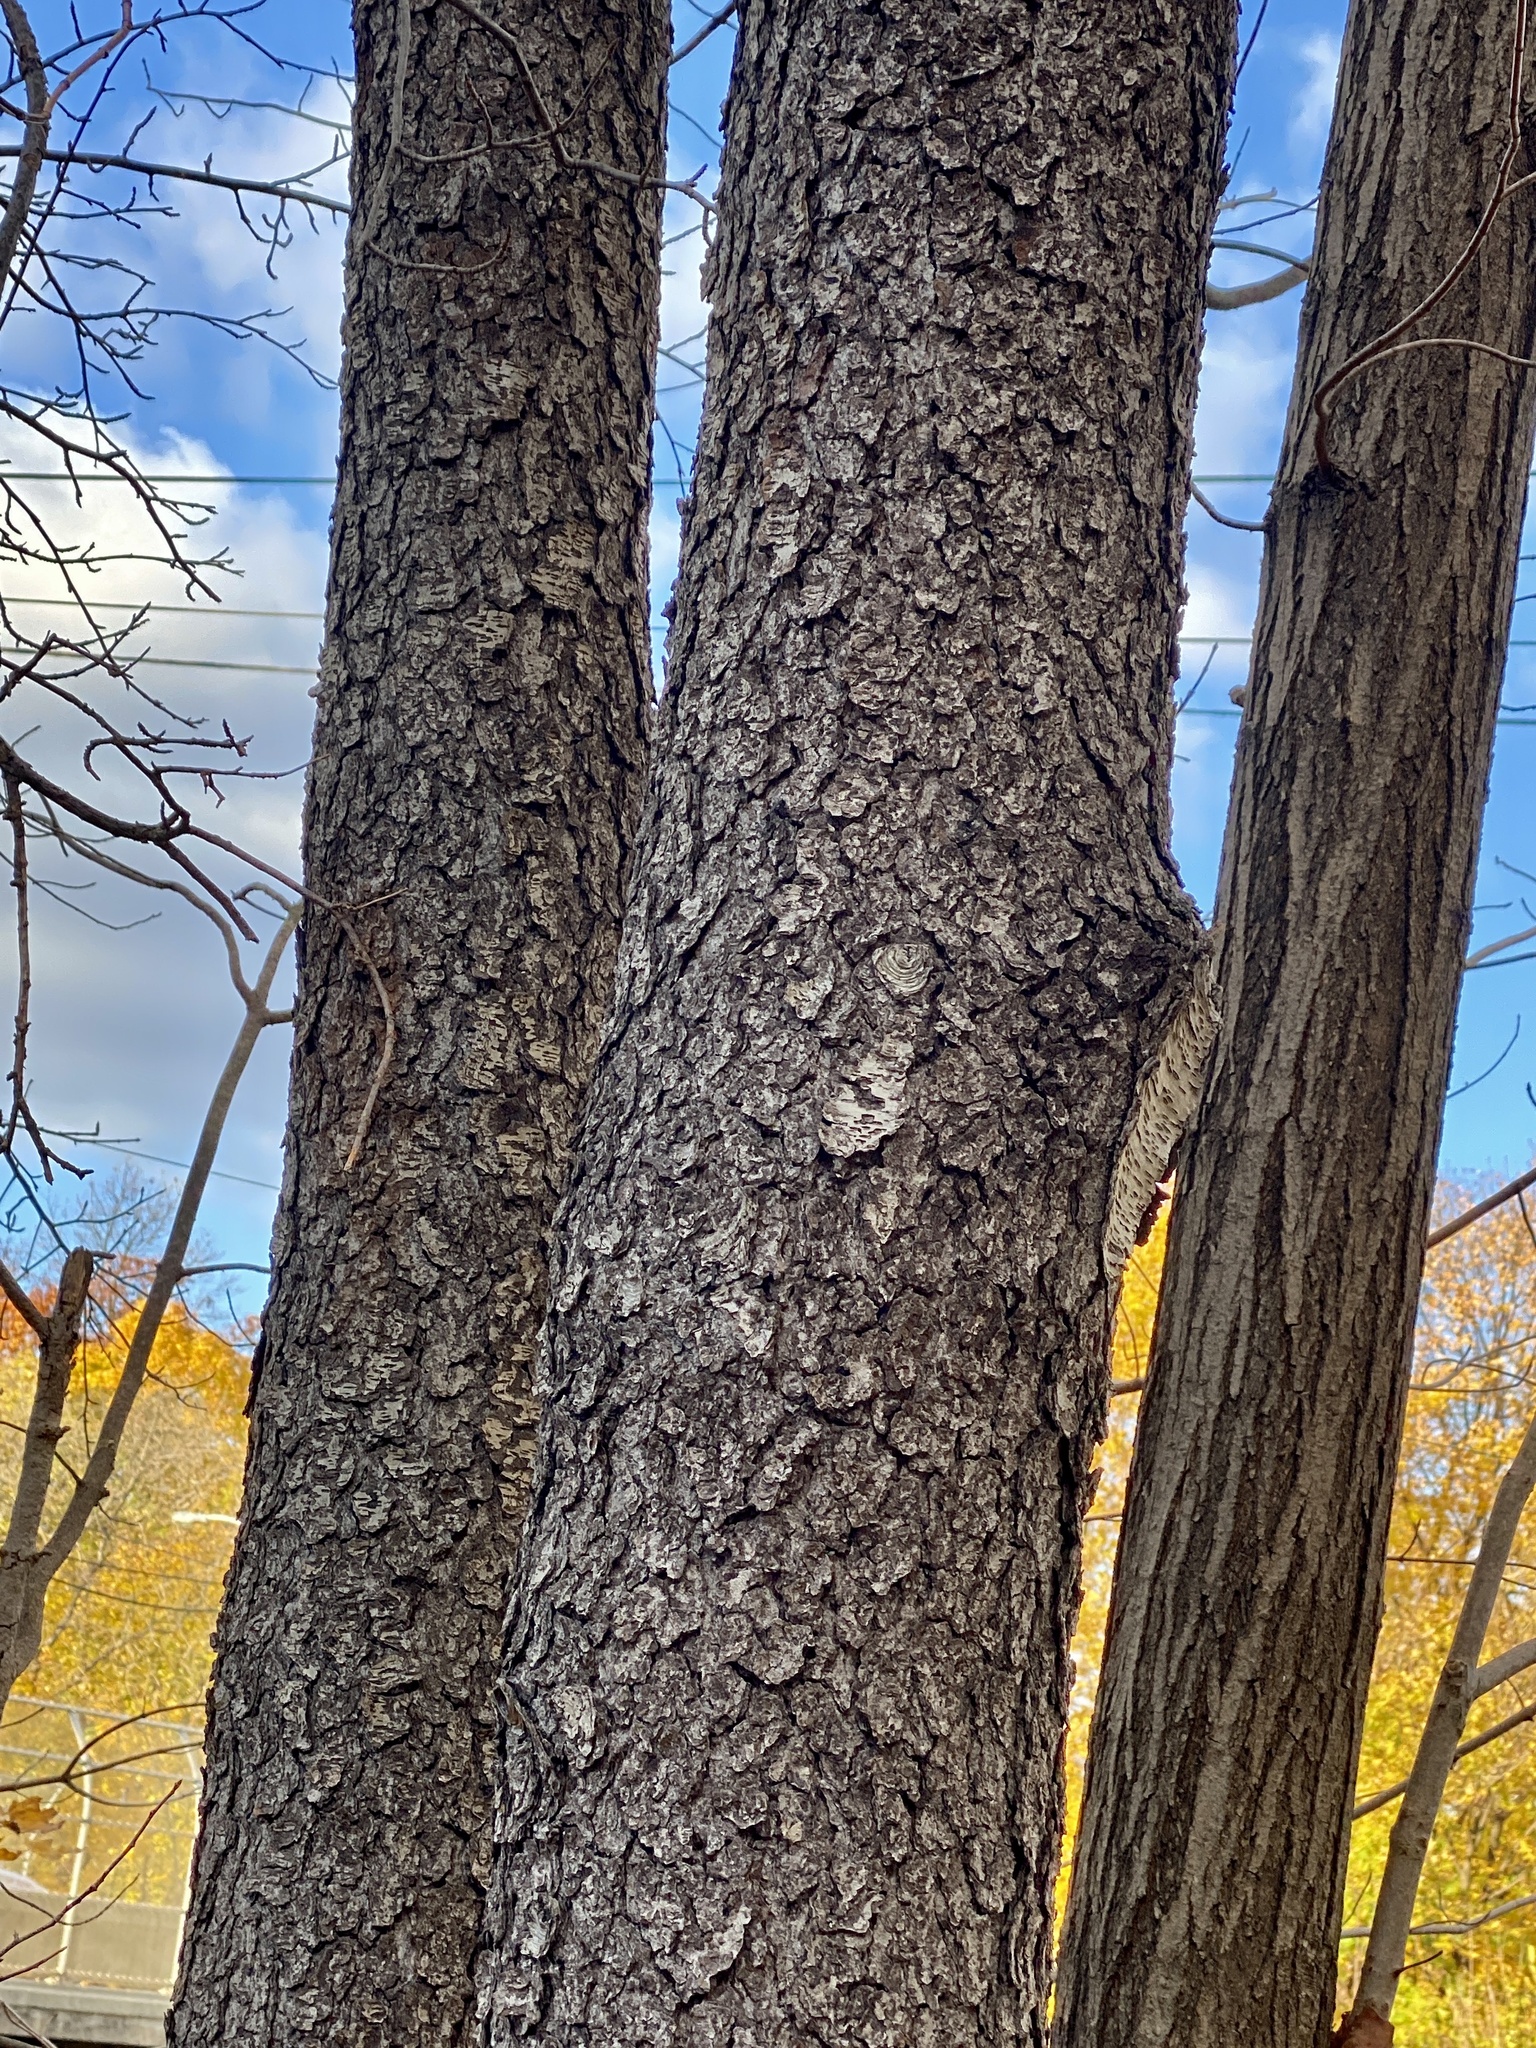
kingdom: Plantae
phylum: Tracheophyta
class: Magnoliopsida
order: Rosales
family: Rosaceae
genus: Prunus
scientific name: Prunus serotina
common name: Black cherry
